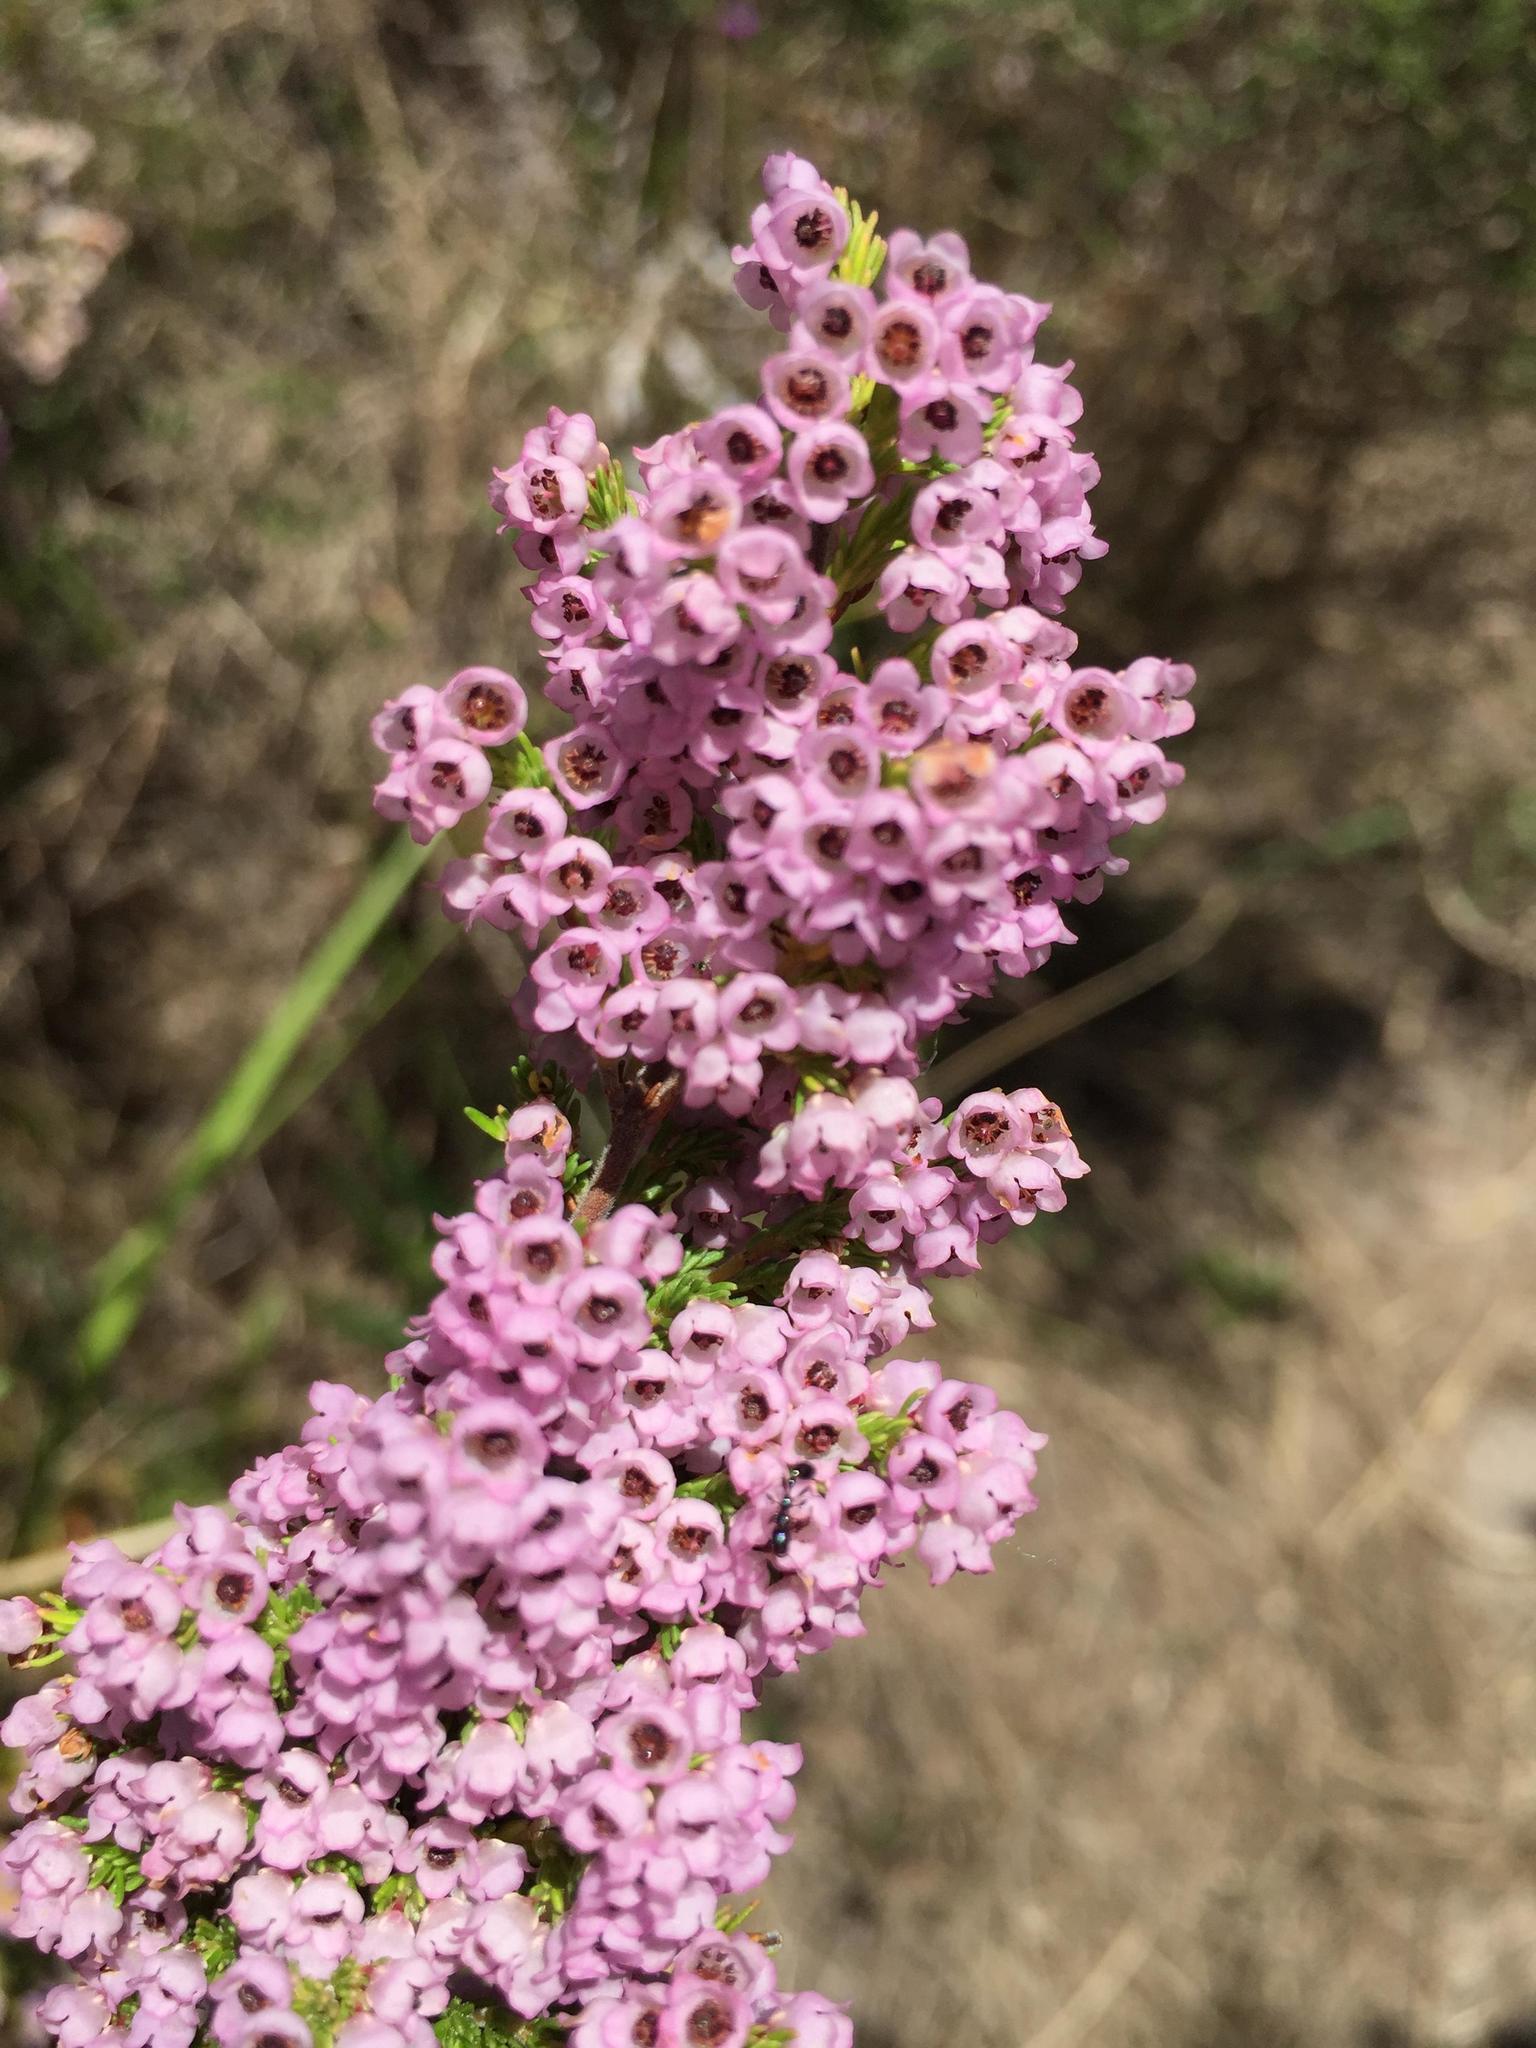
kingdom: Plantae
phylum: Tracheophyta
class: Magnoliopsida
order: Ericales
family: Ericaceae
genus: Erica
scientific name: Erica mauritanica
